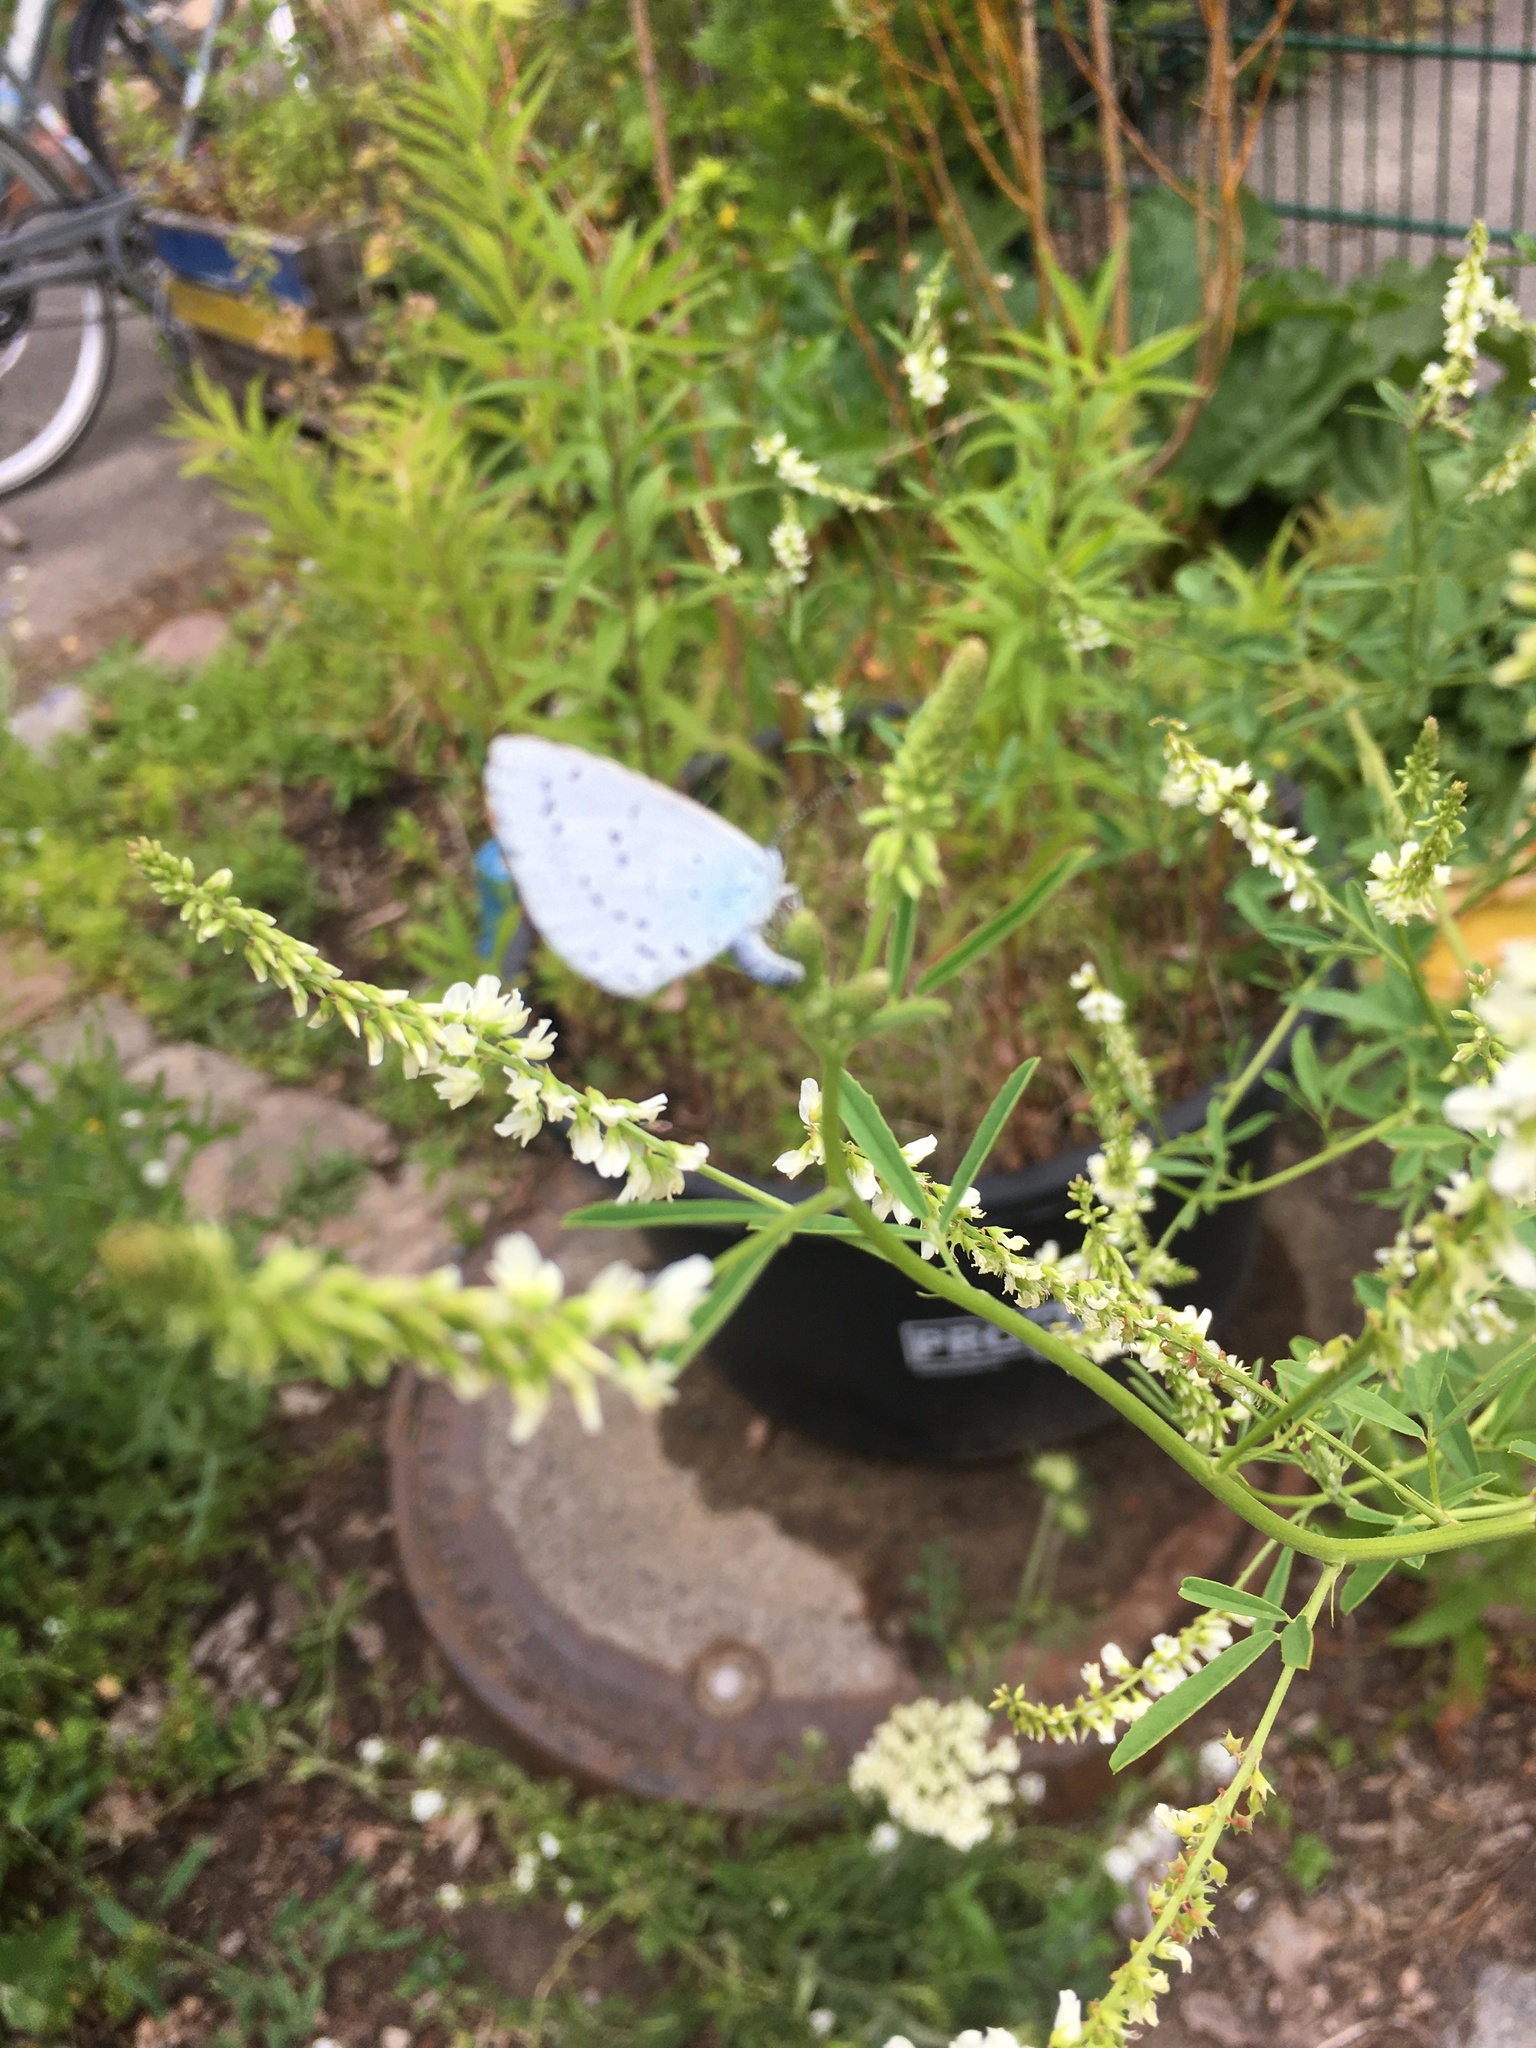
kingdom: Animalia
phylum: Arthropoda
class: Insecta
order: Lepidoptera
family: Lycaenidae
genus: Celastrina
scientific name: Celastrina argiolus
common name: Holly blue
